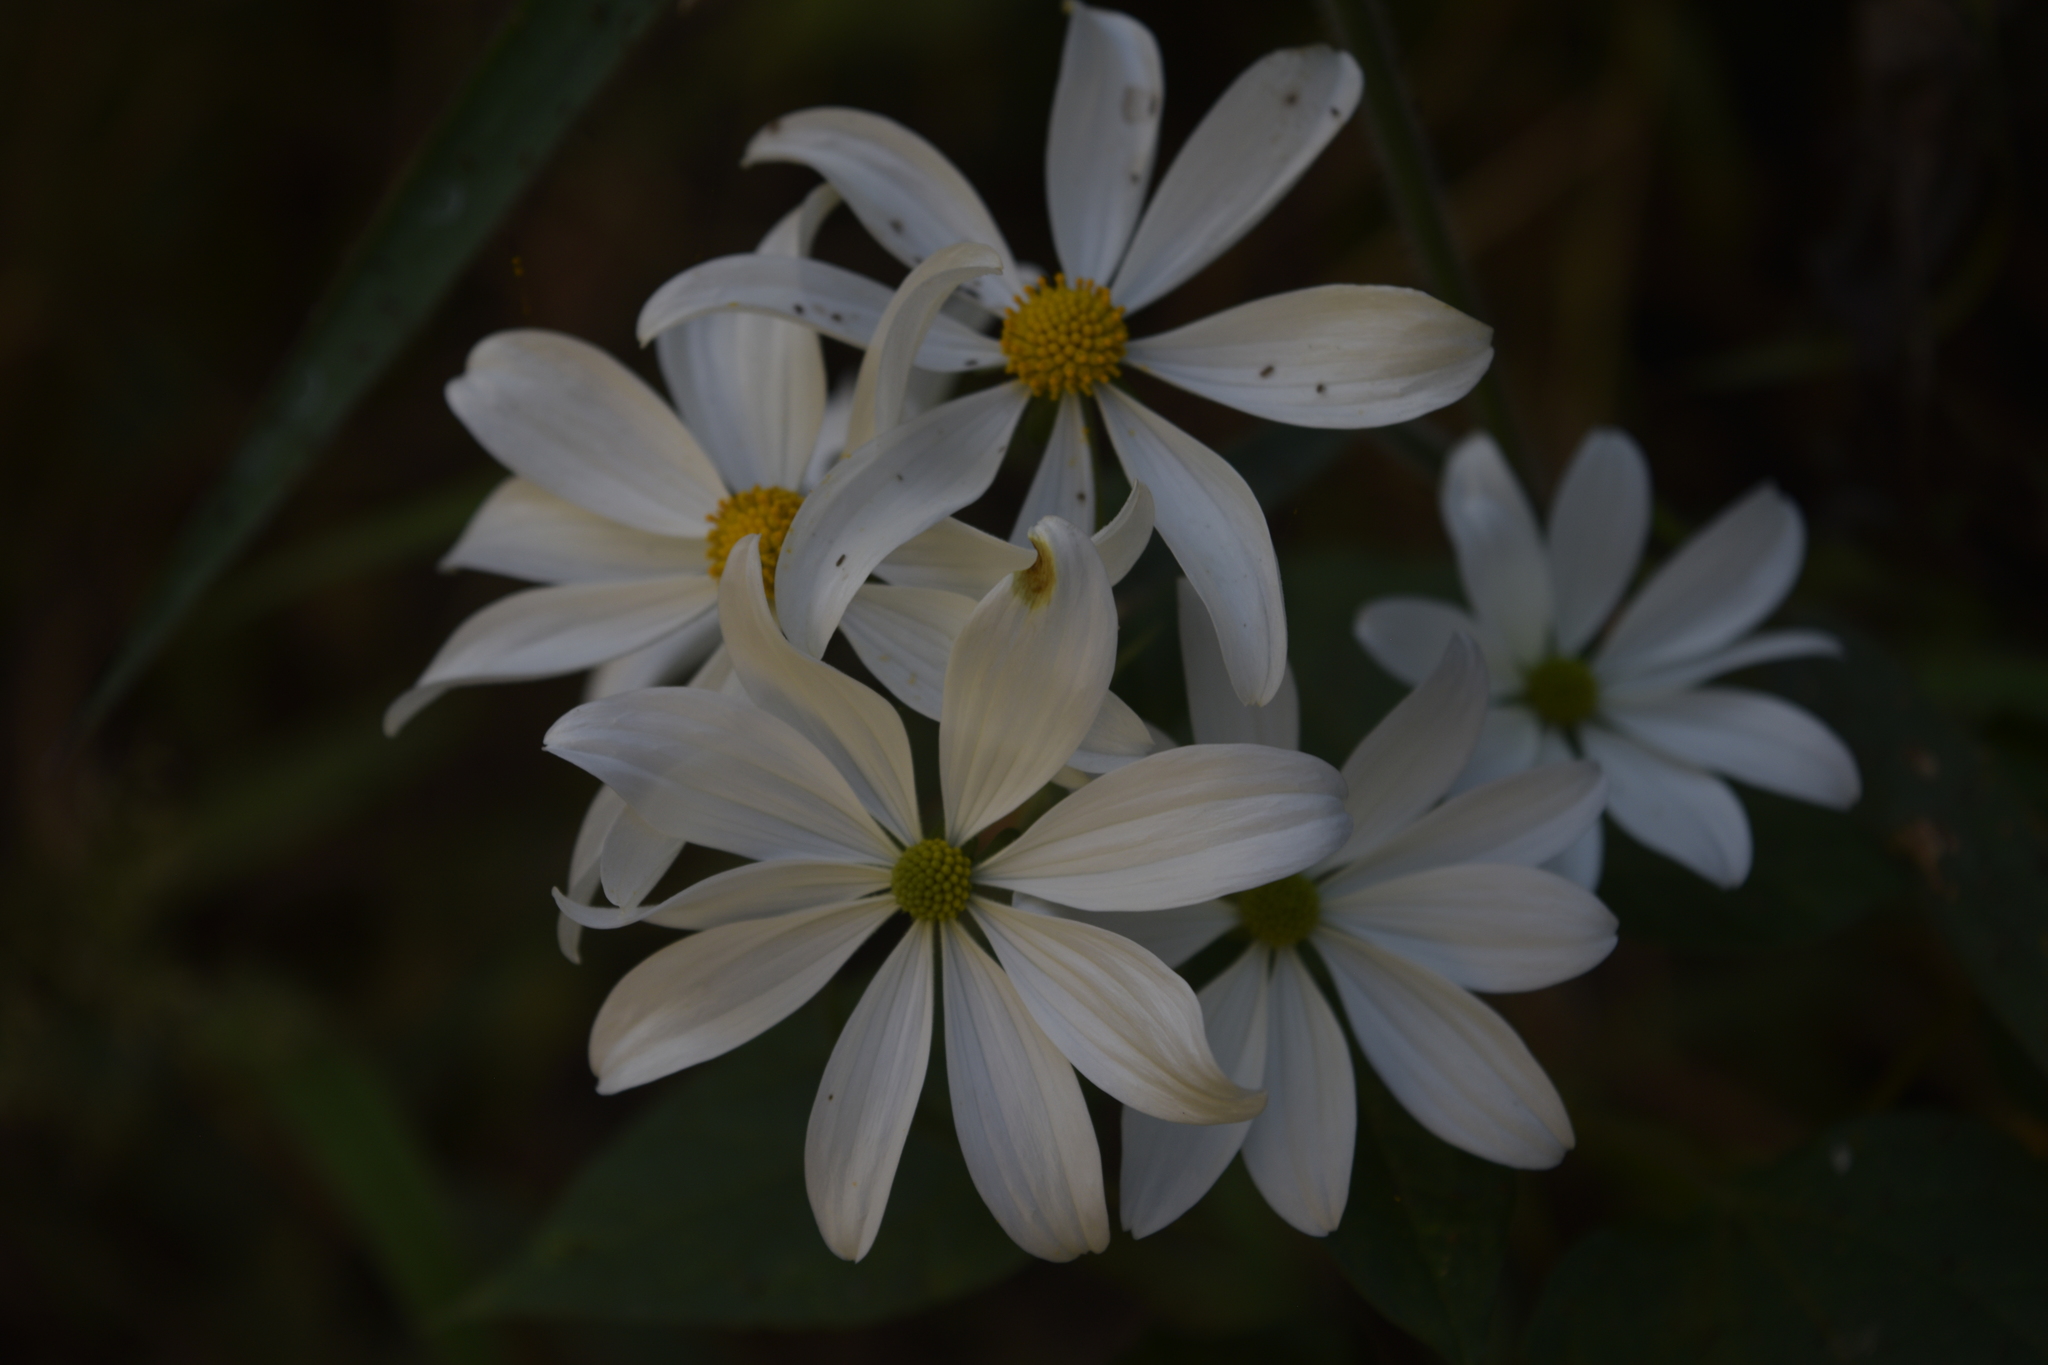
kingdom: Plantae
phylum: Tracheophyta
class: Magnoliopsida
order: Asterales
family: Asteraceae
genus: Montanoa
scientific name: Montanoa atriplicifolia
